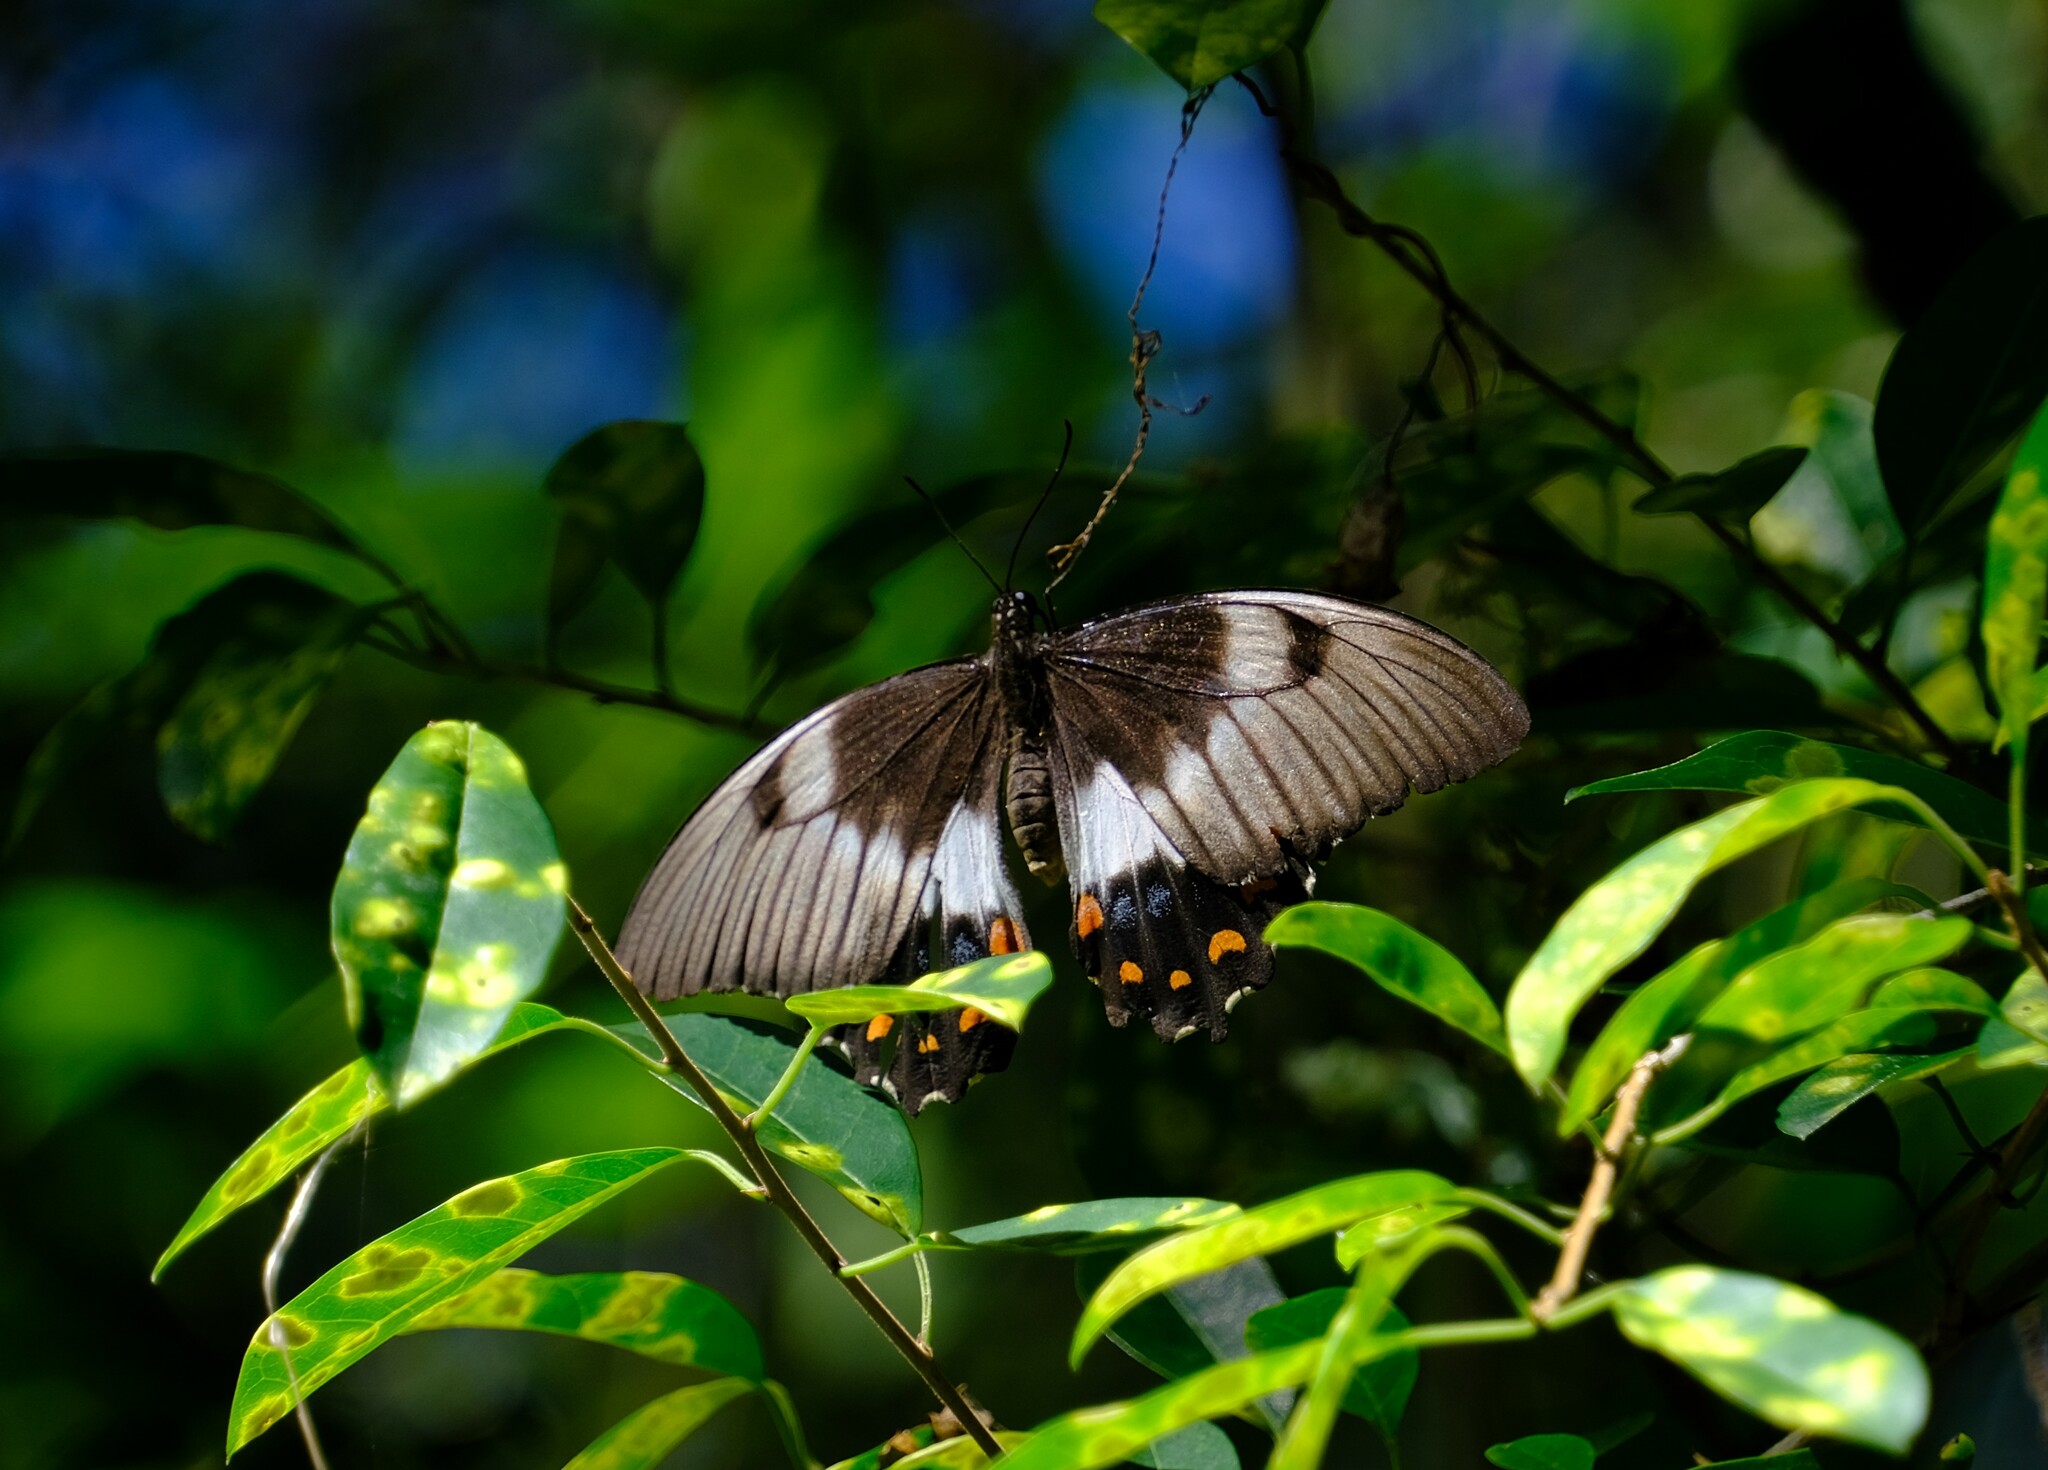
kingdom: Animalia
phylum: Arthropoda
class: Insecta
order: Lepidoptera
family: Papilionidae
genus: Papilio
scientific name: Papilio aegeus
